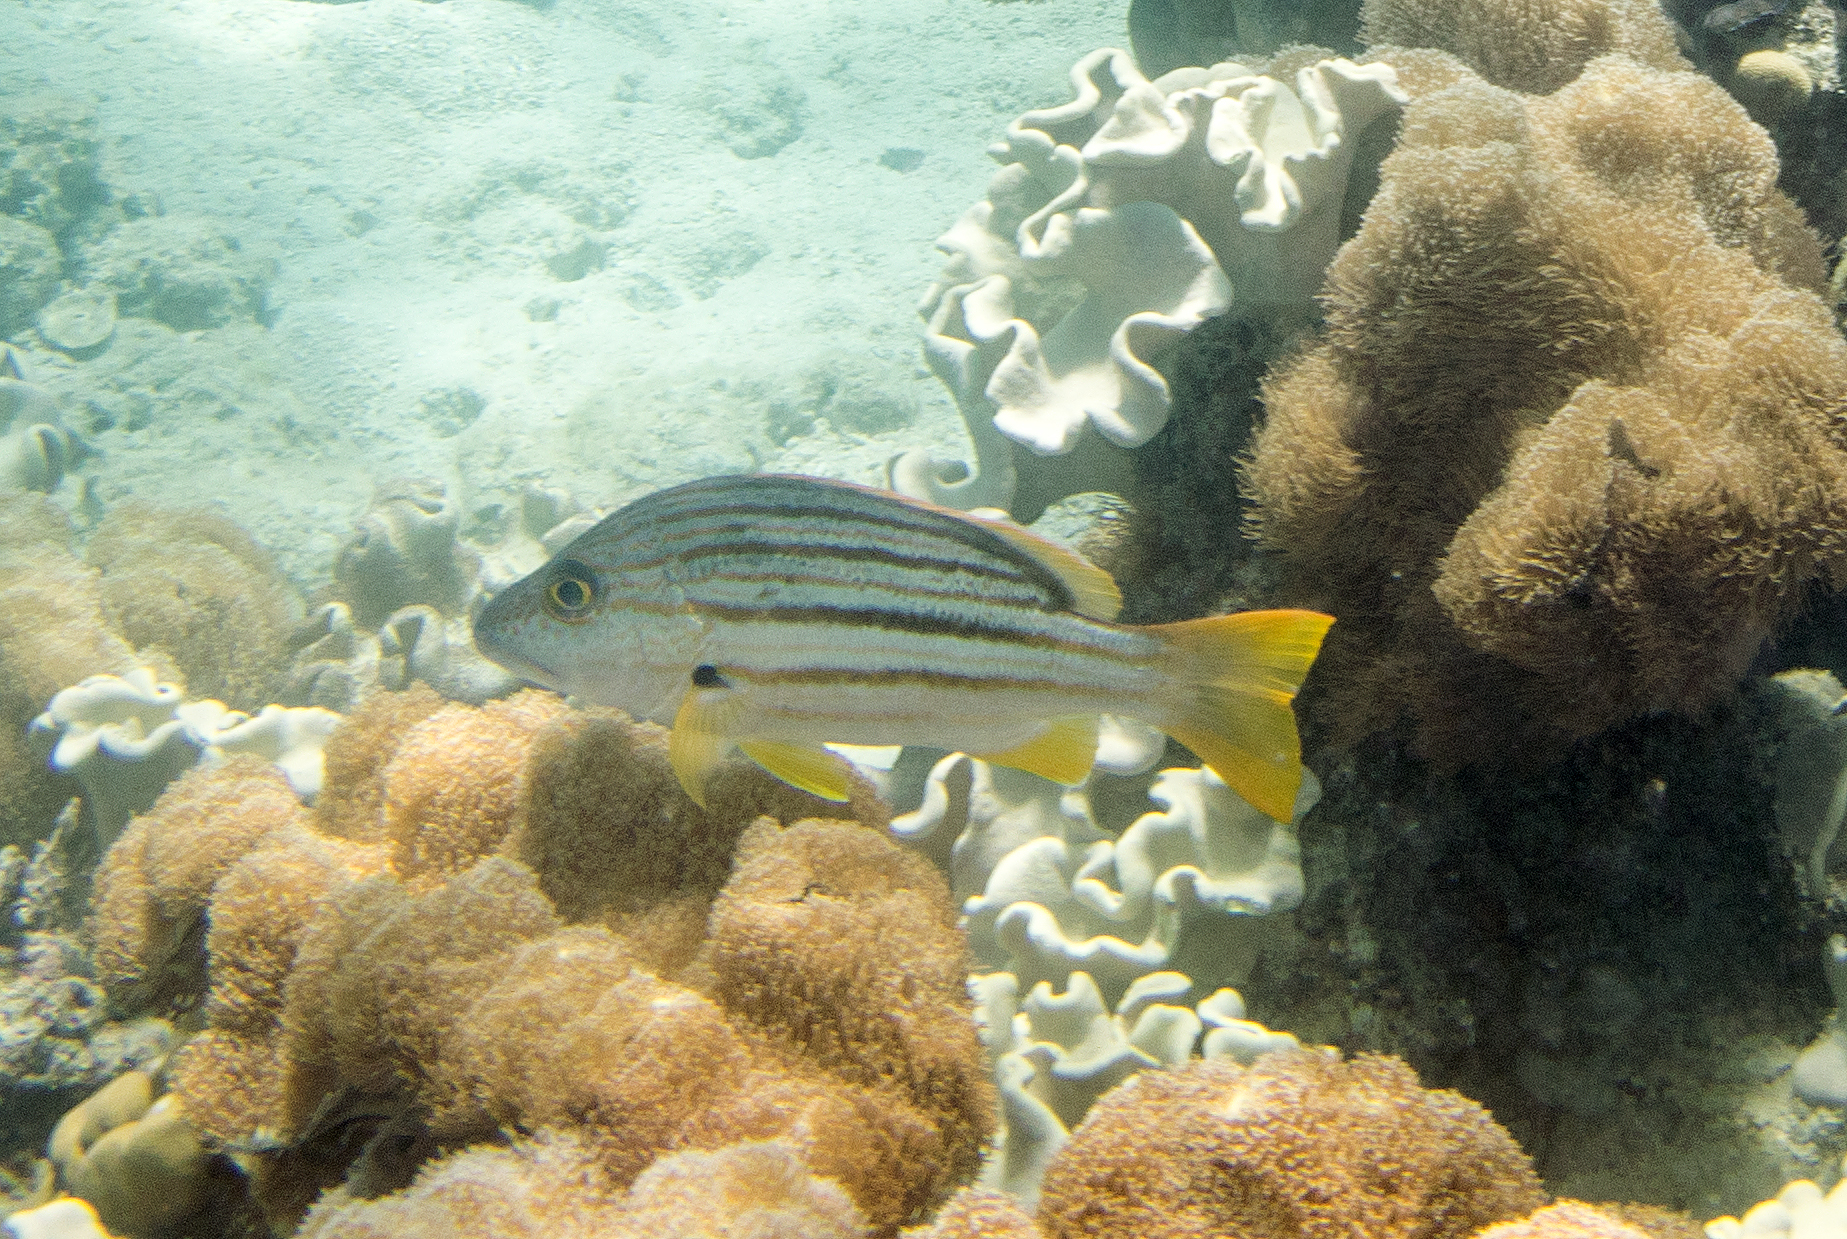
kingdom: Animalia
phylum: Chordata
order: Perciformes
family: Lutjanidae
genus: Lutjanus
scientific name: Lutjanus carponotatus
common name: Spanish flag
